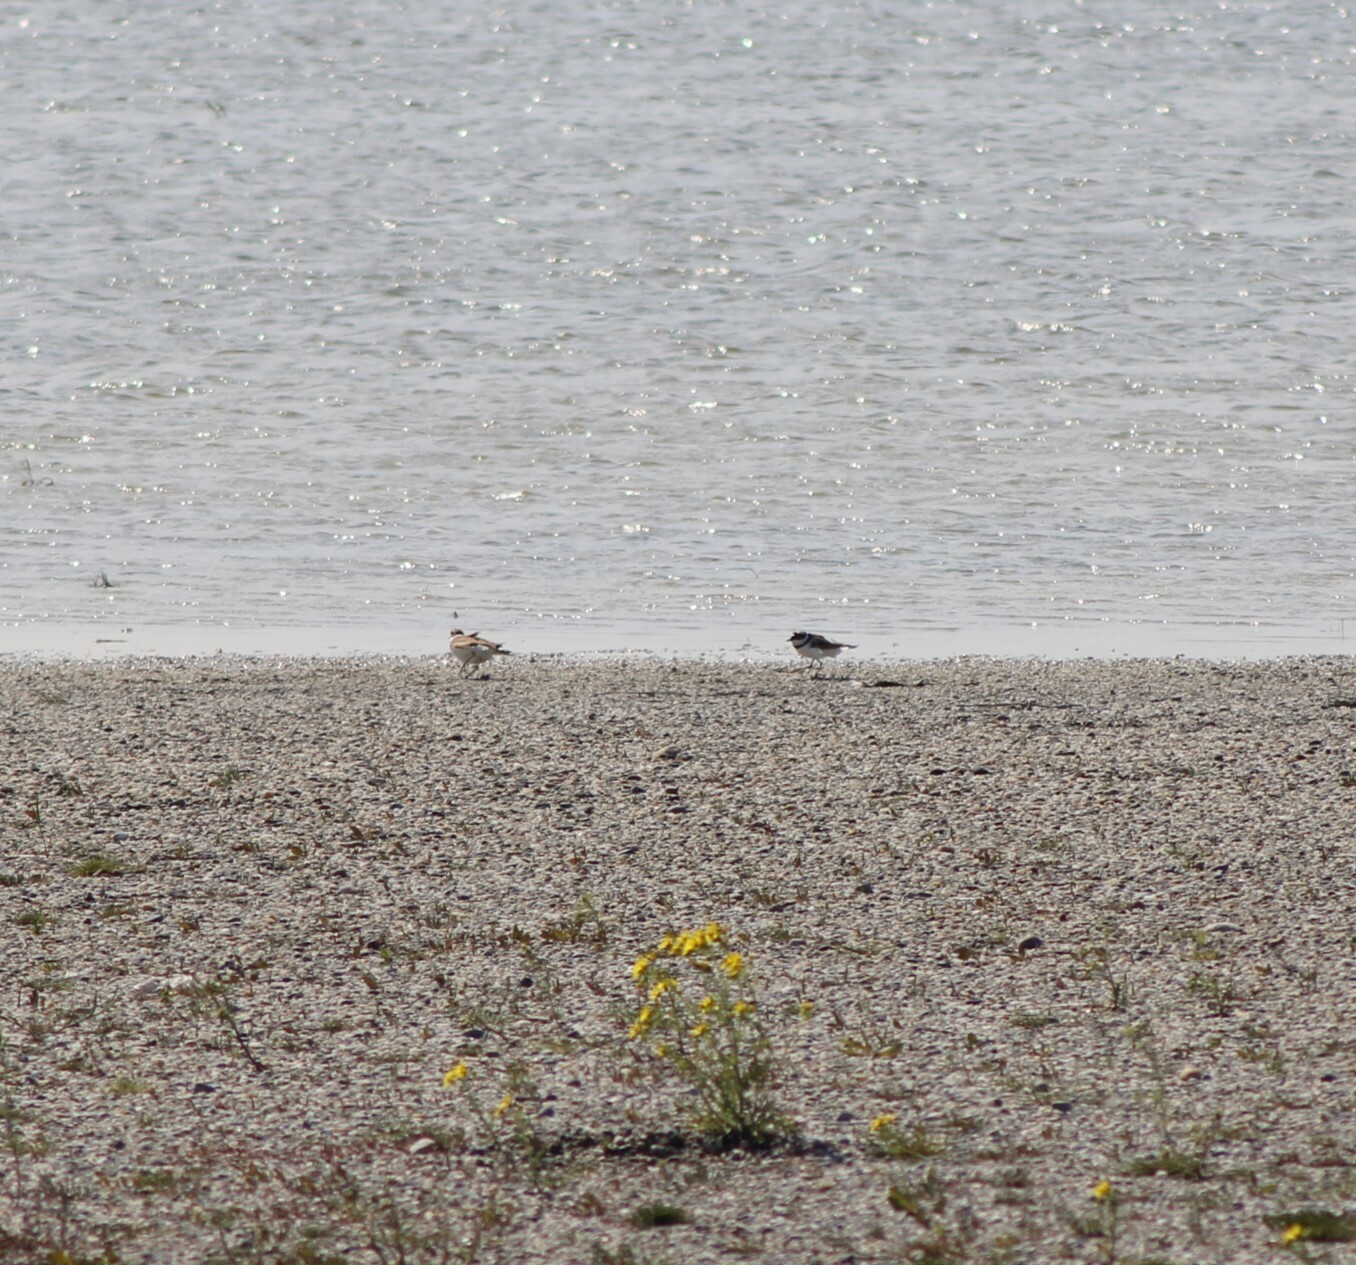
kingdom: Animalia
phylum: Chordata
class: Aves
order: Charadriiformes
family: Charadriidae
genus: Charadrius
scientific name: Charadrius dubius
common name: Little ringed plover
